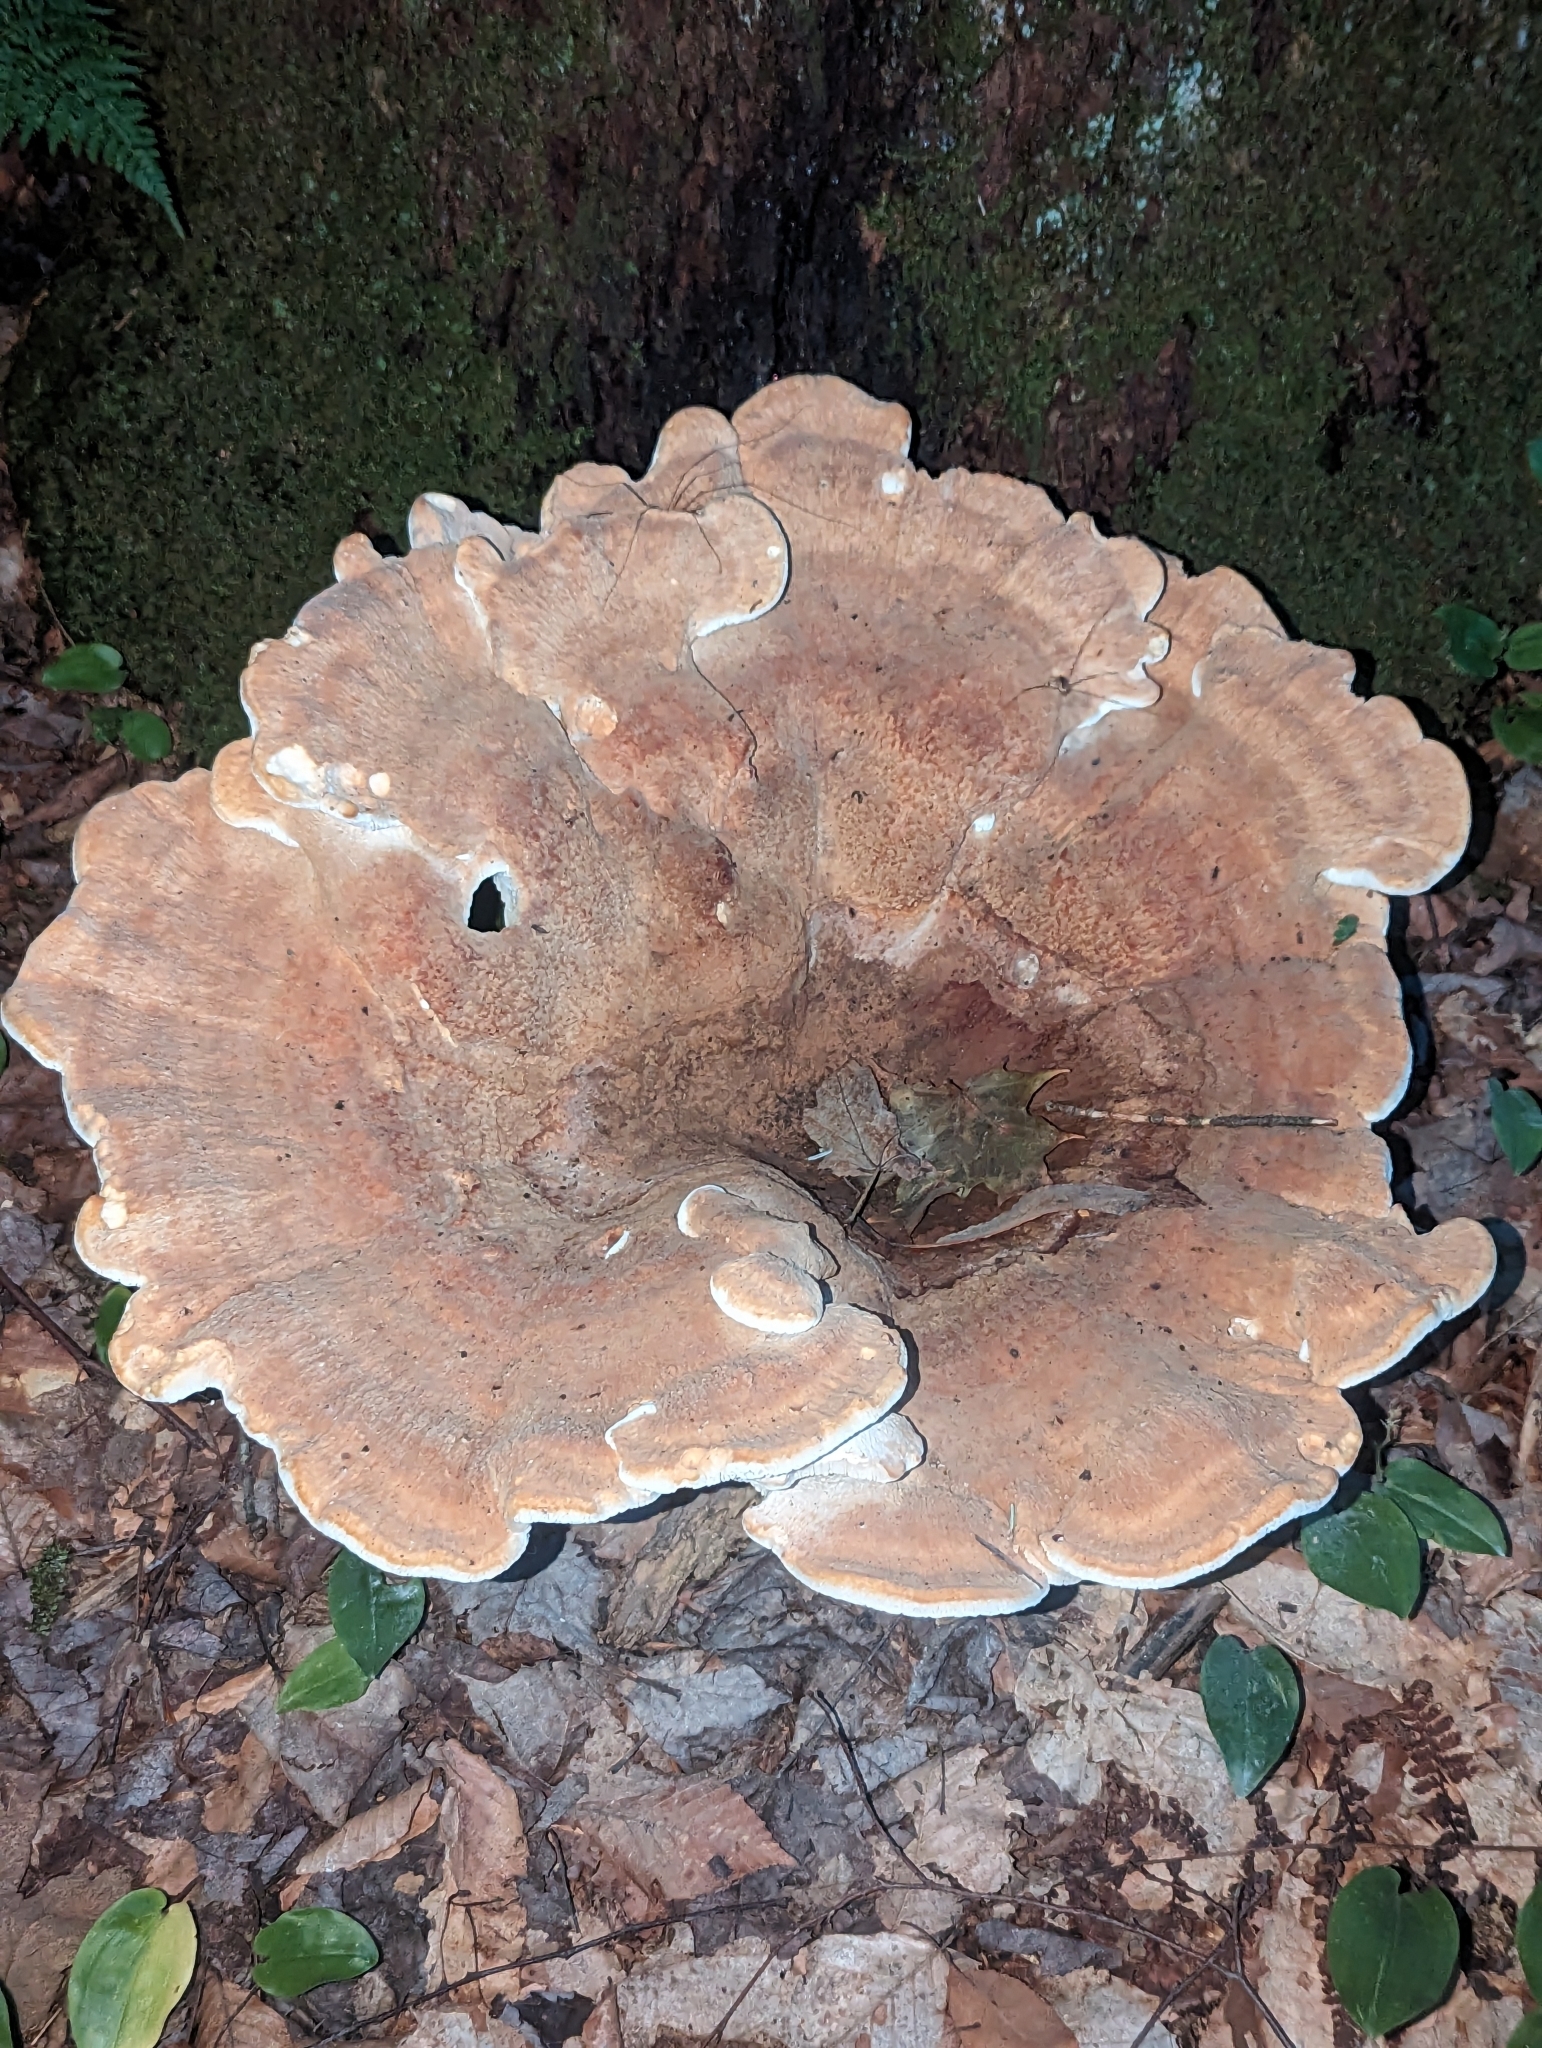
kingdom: Fungi
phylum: Basidiomycota
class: Agaricomycetes
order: Russulales
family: Bondarzewiaceae
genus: Bondarzewia
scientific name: Bondarzewia berkeleyi
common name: Berkeley's polypore
